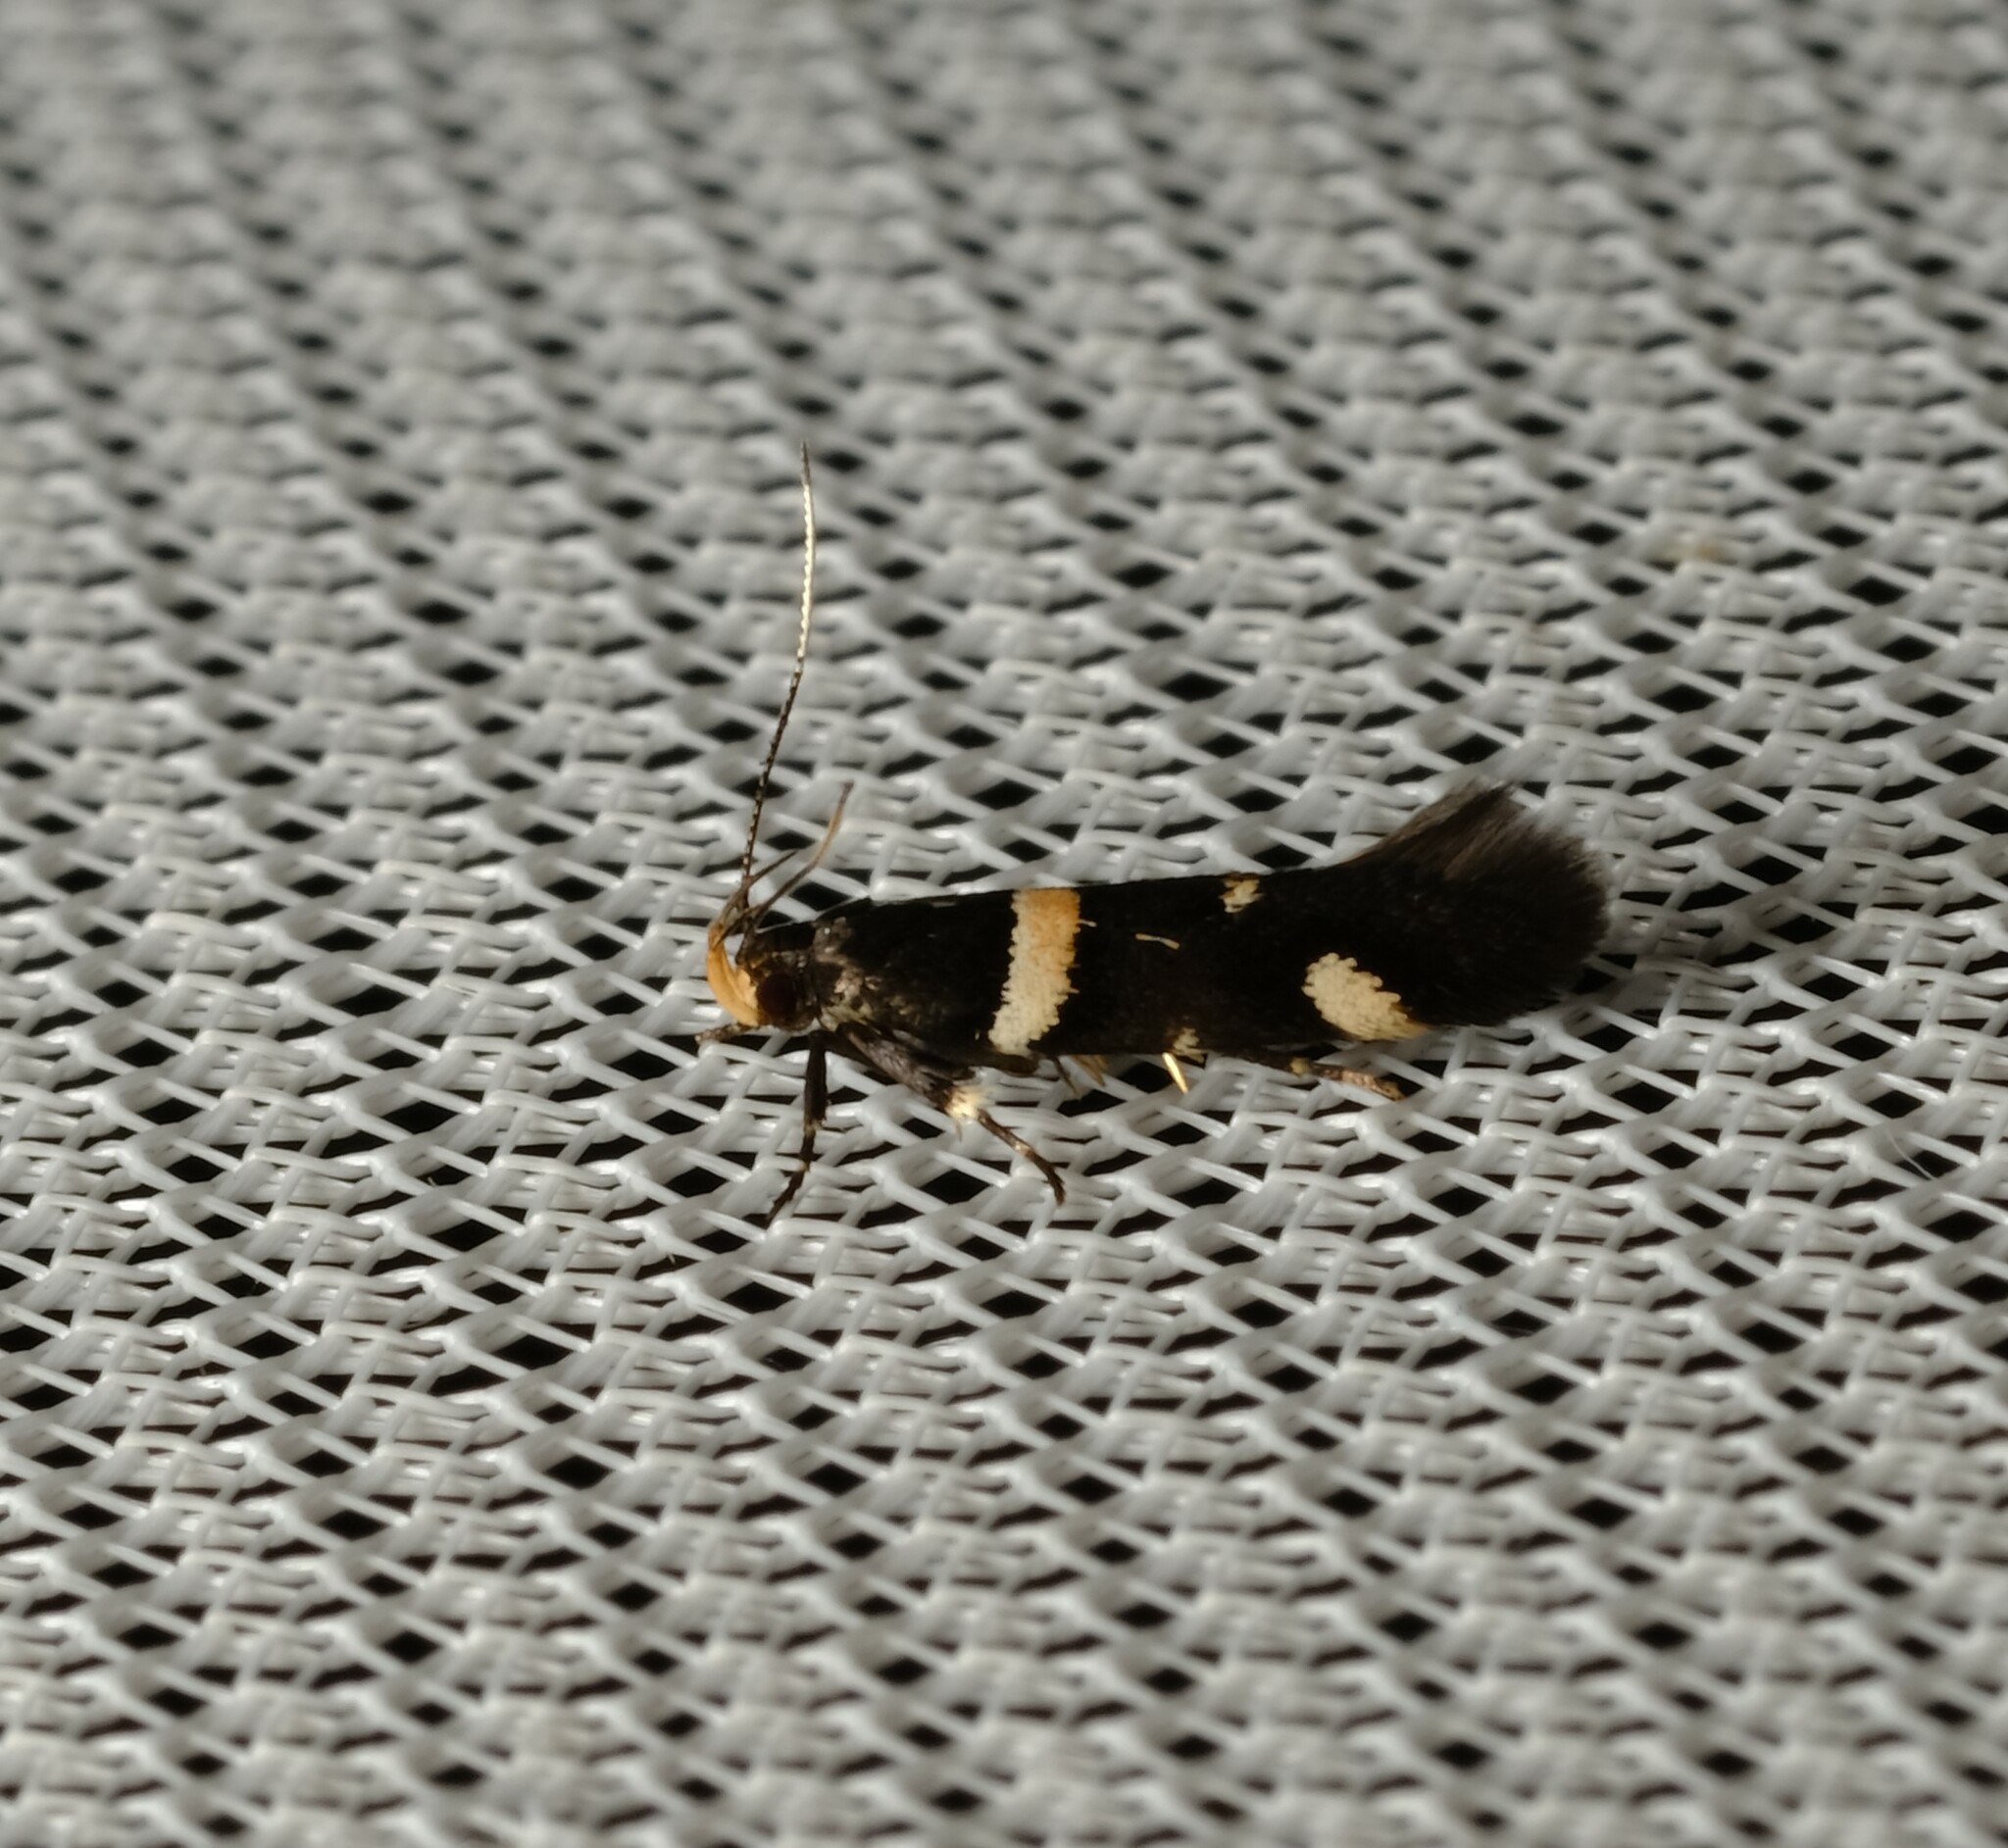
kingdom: Animalia
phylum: Arthropoda
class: Insecta
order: Lepidoptera
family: Cosmopterigidae
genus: Macrobathra
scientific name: Macrobathra alternatella
